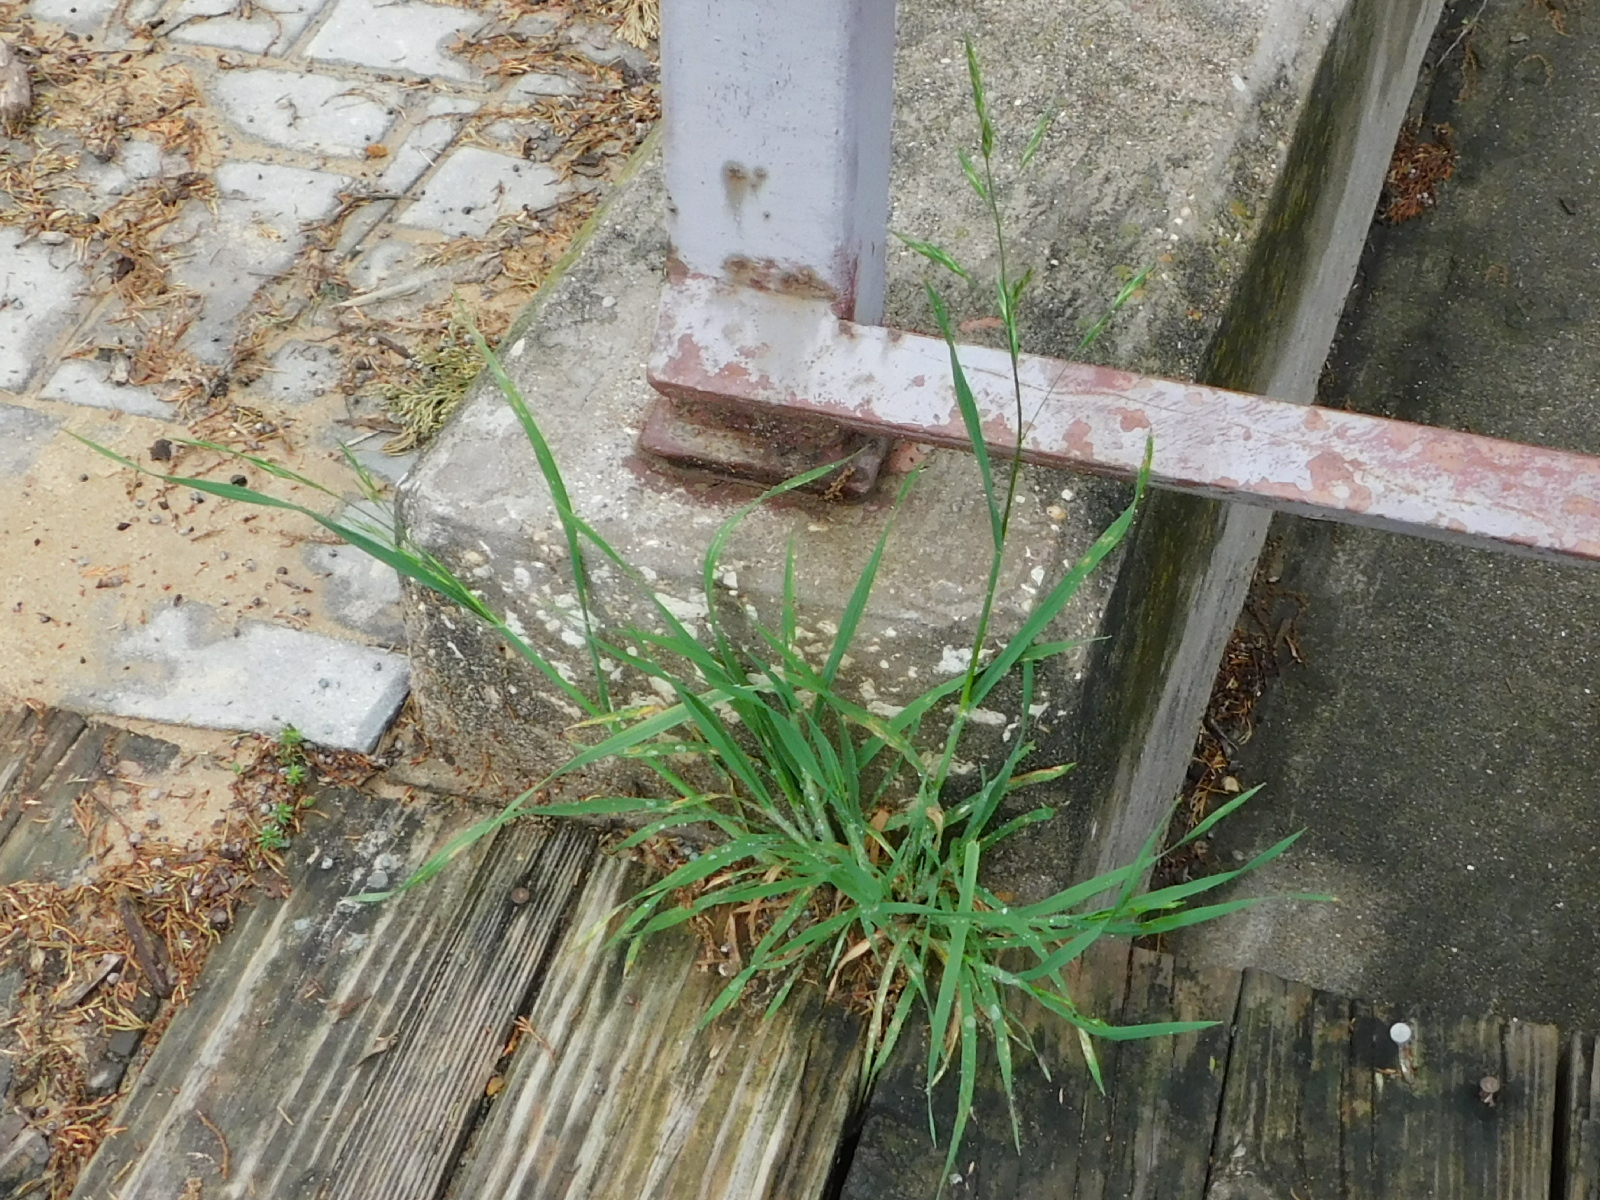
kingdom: Plantae
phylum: Tracheophyta
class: Liliopsida
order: Poales
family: Poaceae
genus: Bromus
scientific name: Bromus catharticus
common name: Rescuegrass
